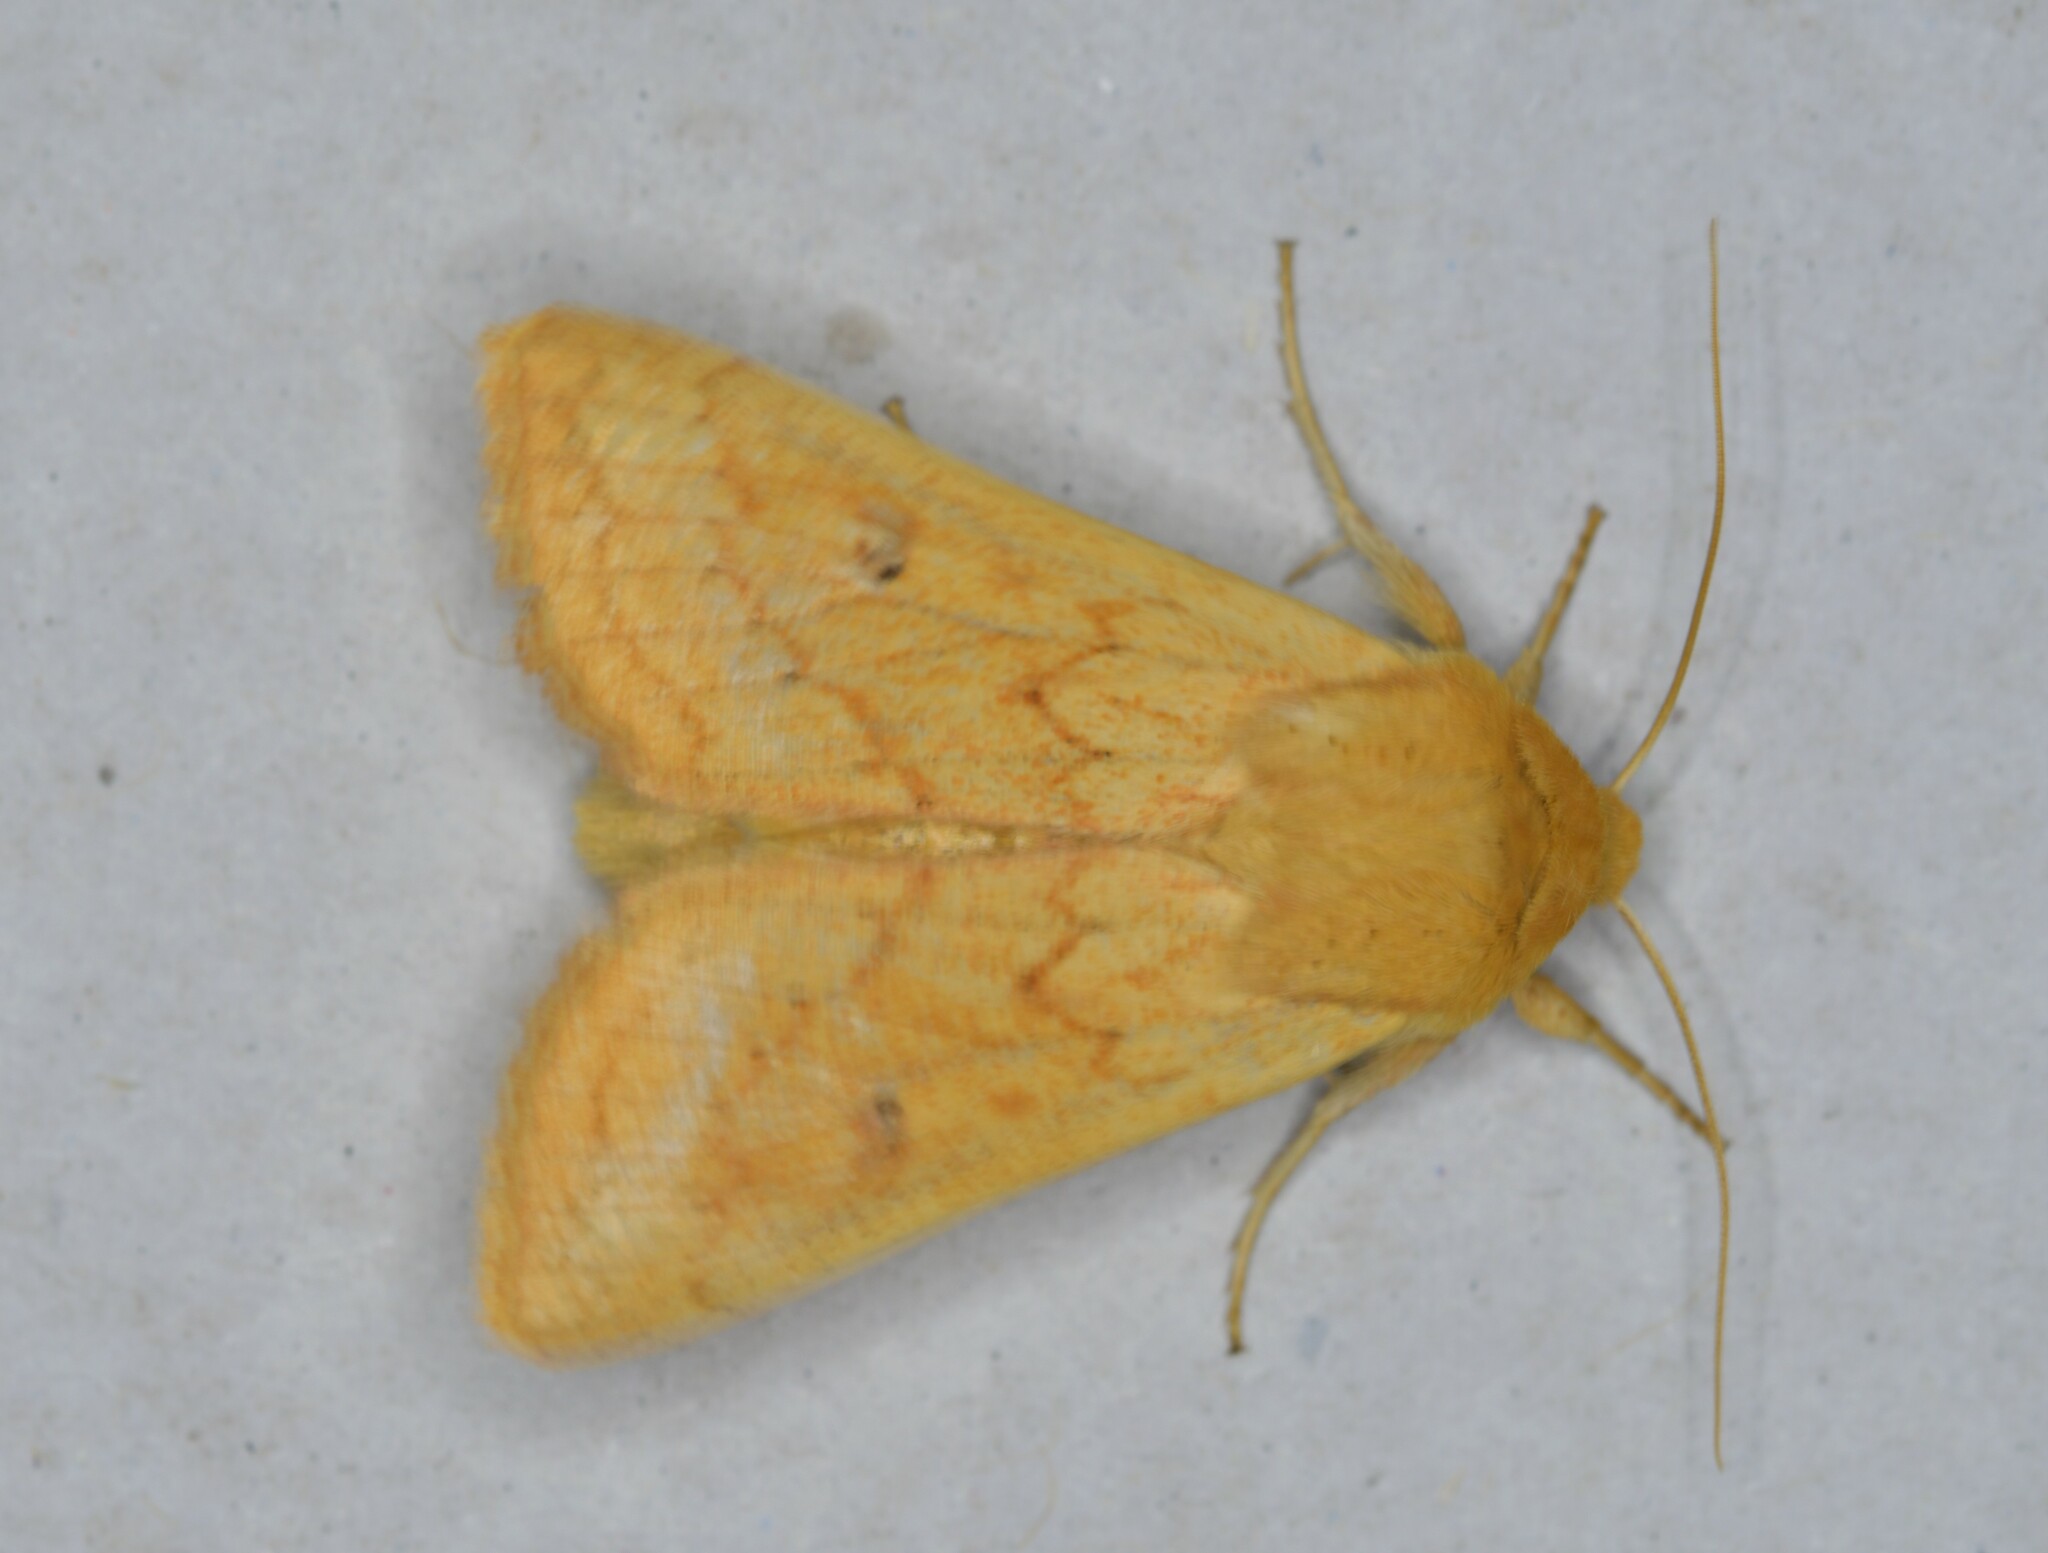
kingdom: Animalia
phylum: Arthropoda
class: Insecta
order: Lepidoptera
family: Noctuidae
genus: Mythimna
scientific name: Mythimna vitellina
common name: Delicate
